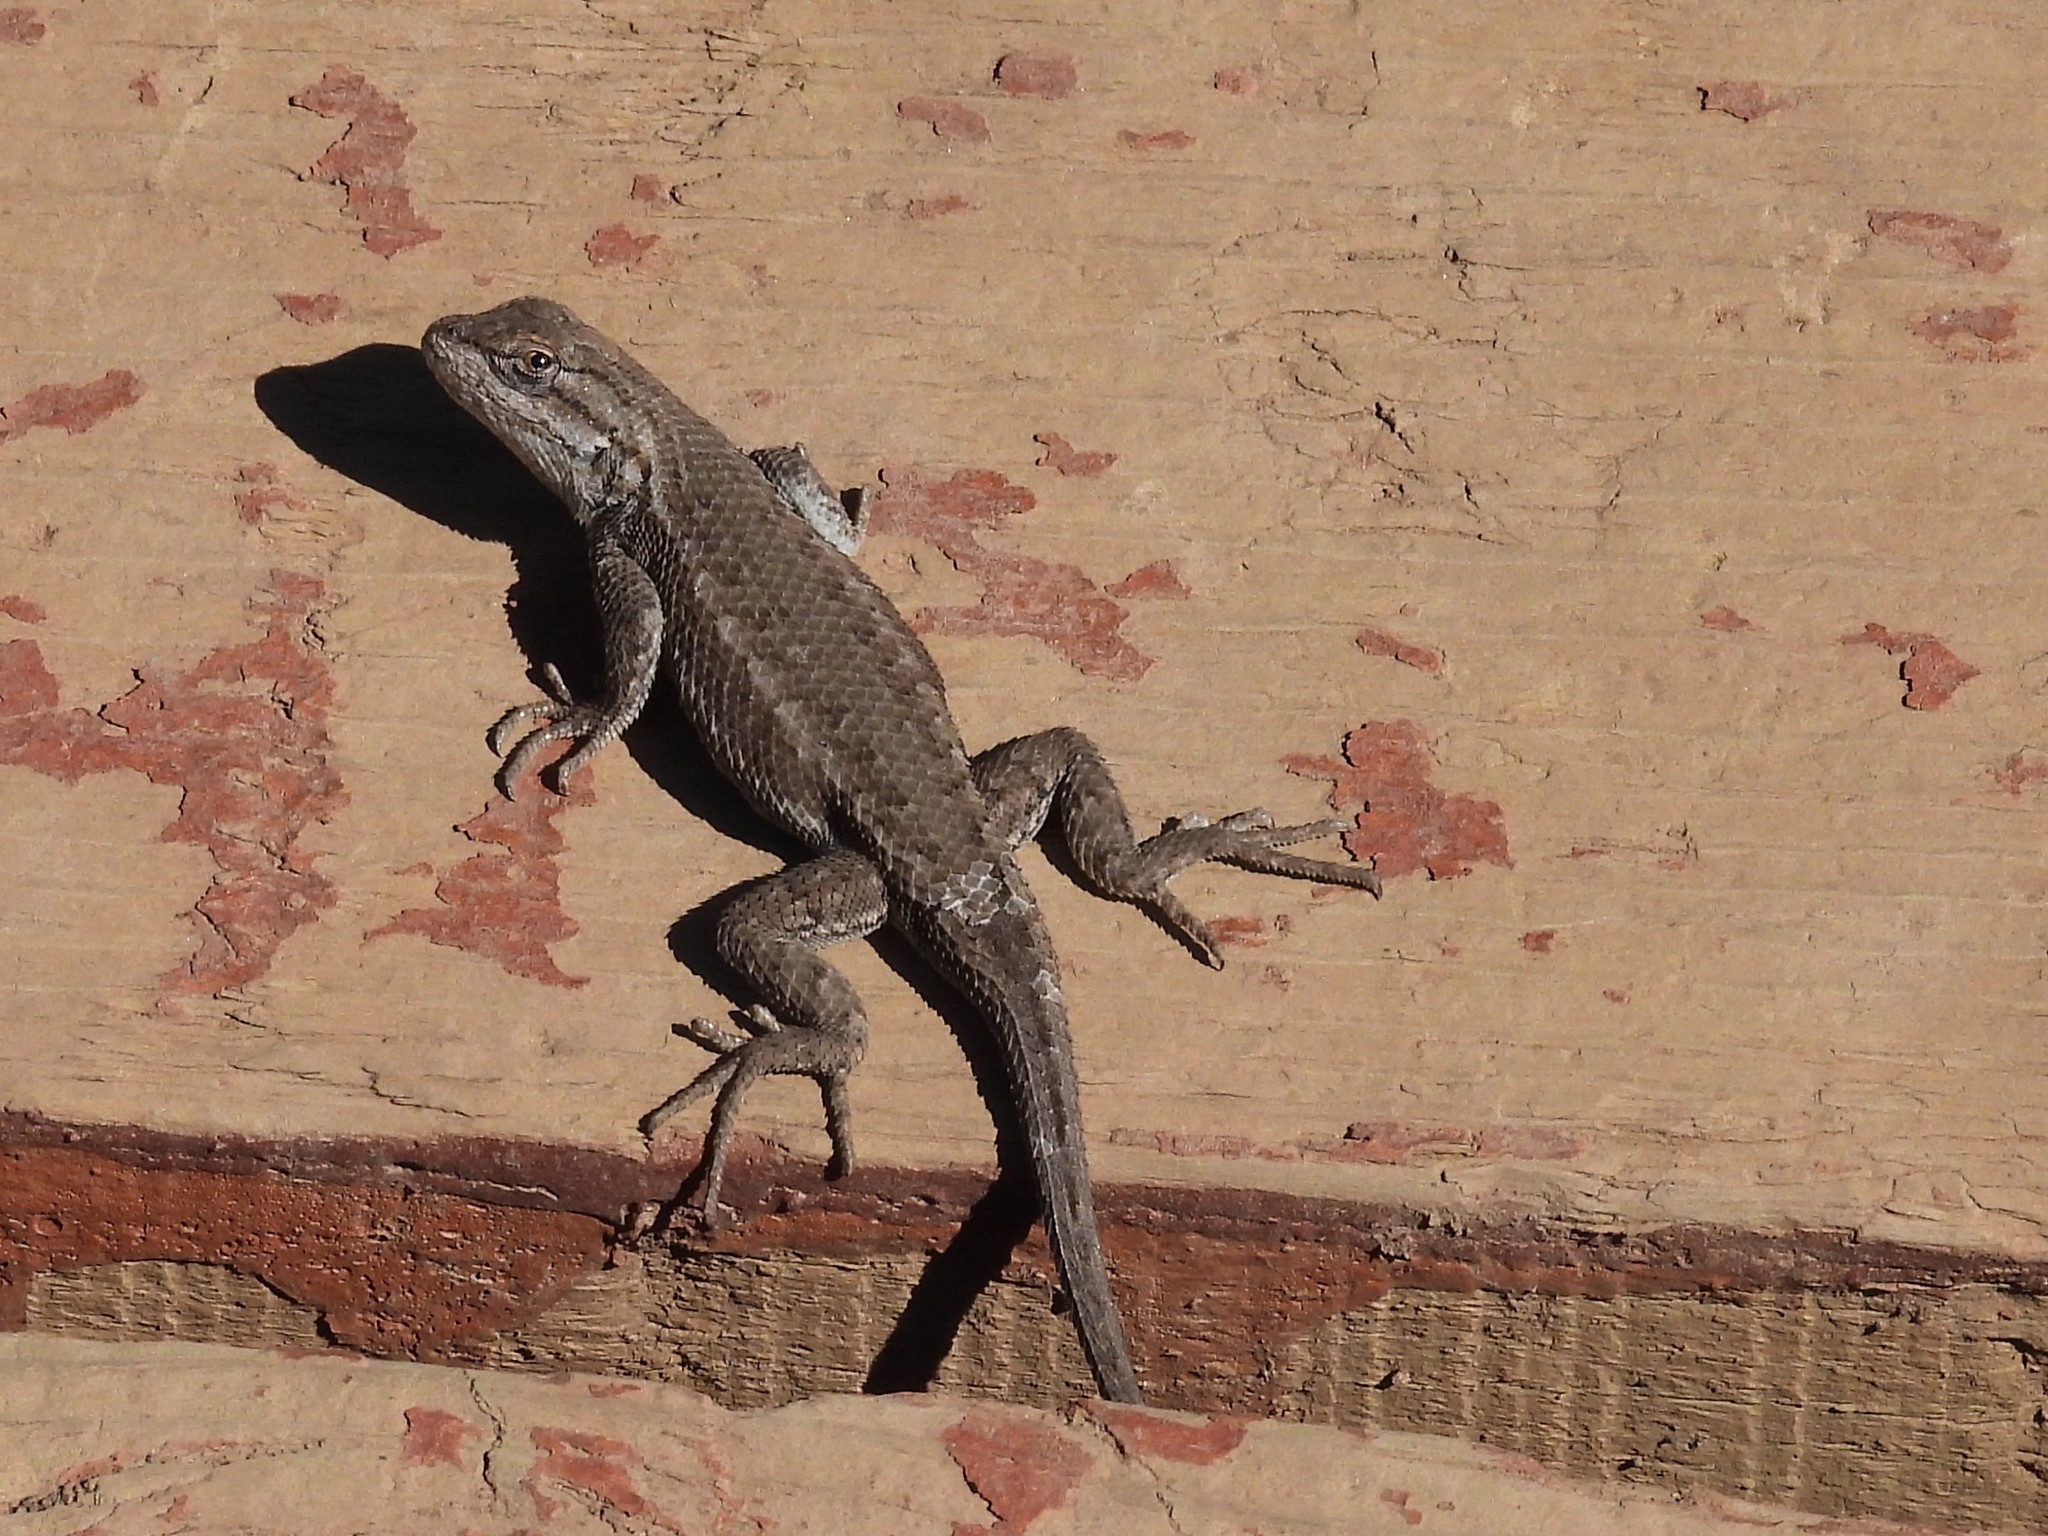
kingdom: Animalia
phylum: Chordata
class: Squamata
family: Phrynosomatidae
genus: Sceloporus
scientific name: Sceloporus tristichus
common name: Plateau fence lizard
